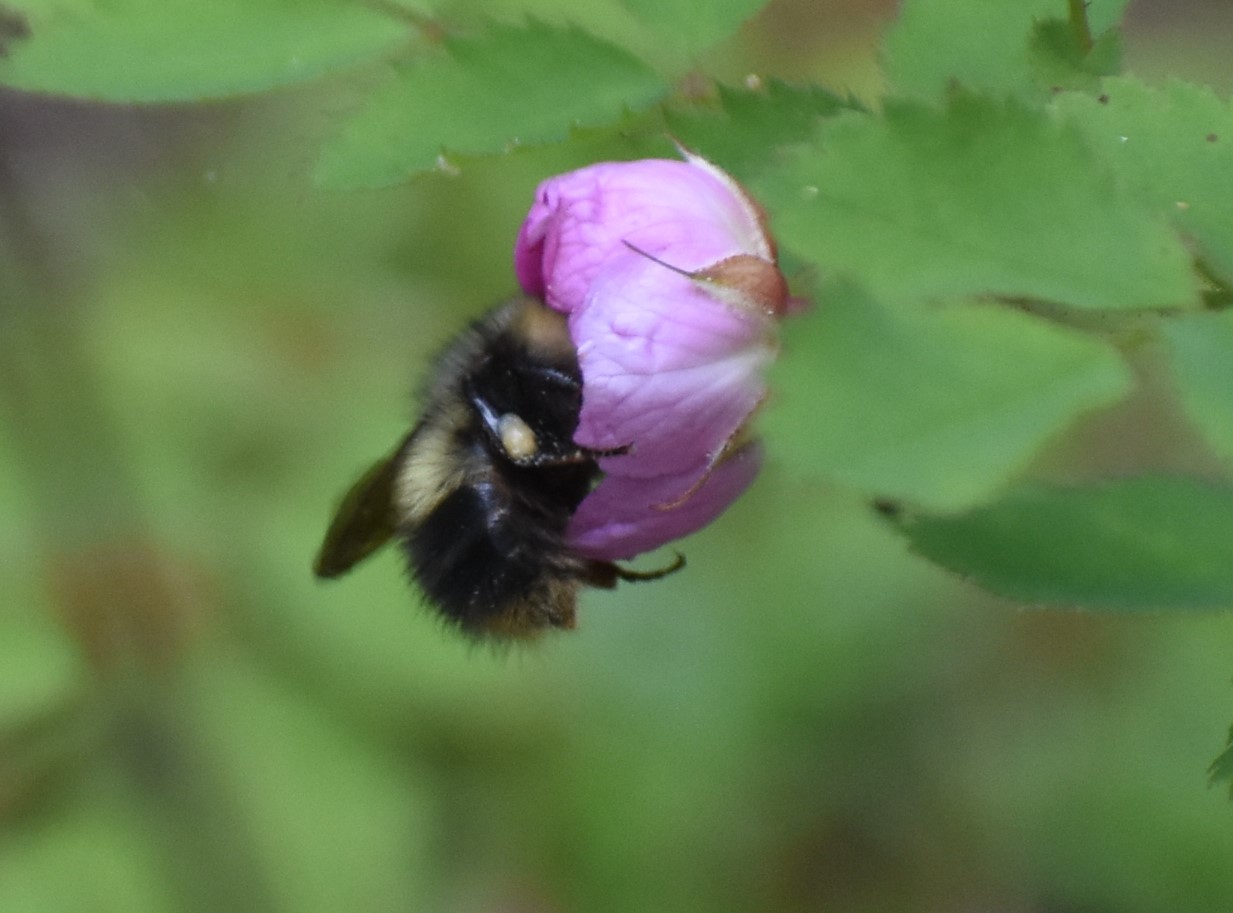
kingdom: Animalia
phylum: Arthropoda
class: Insecta
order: Hymenoptera
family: Apidae
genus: Bombus
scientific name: Bombus sitkensis
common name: Sitka bumble bee
